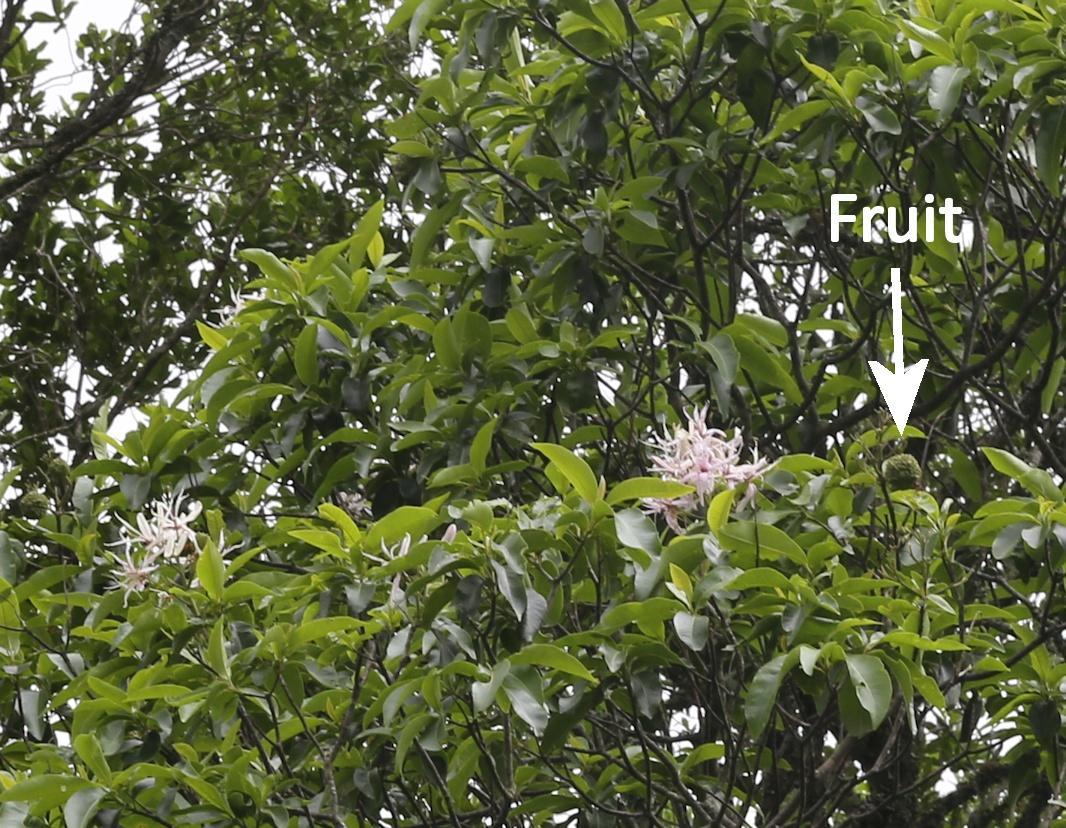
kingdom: Plantae
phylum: Tracheophyta
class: Magnoliopsida
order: Sapindales
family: Rutaceae
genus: Calodendrum
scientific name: Calodendrum capense
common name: Cape chestnut
